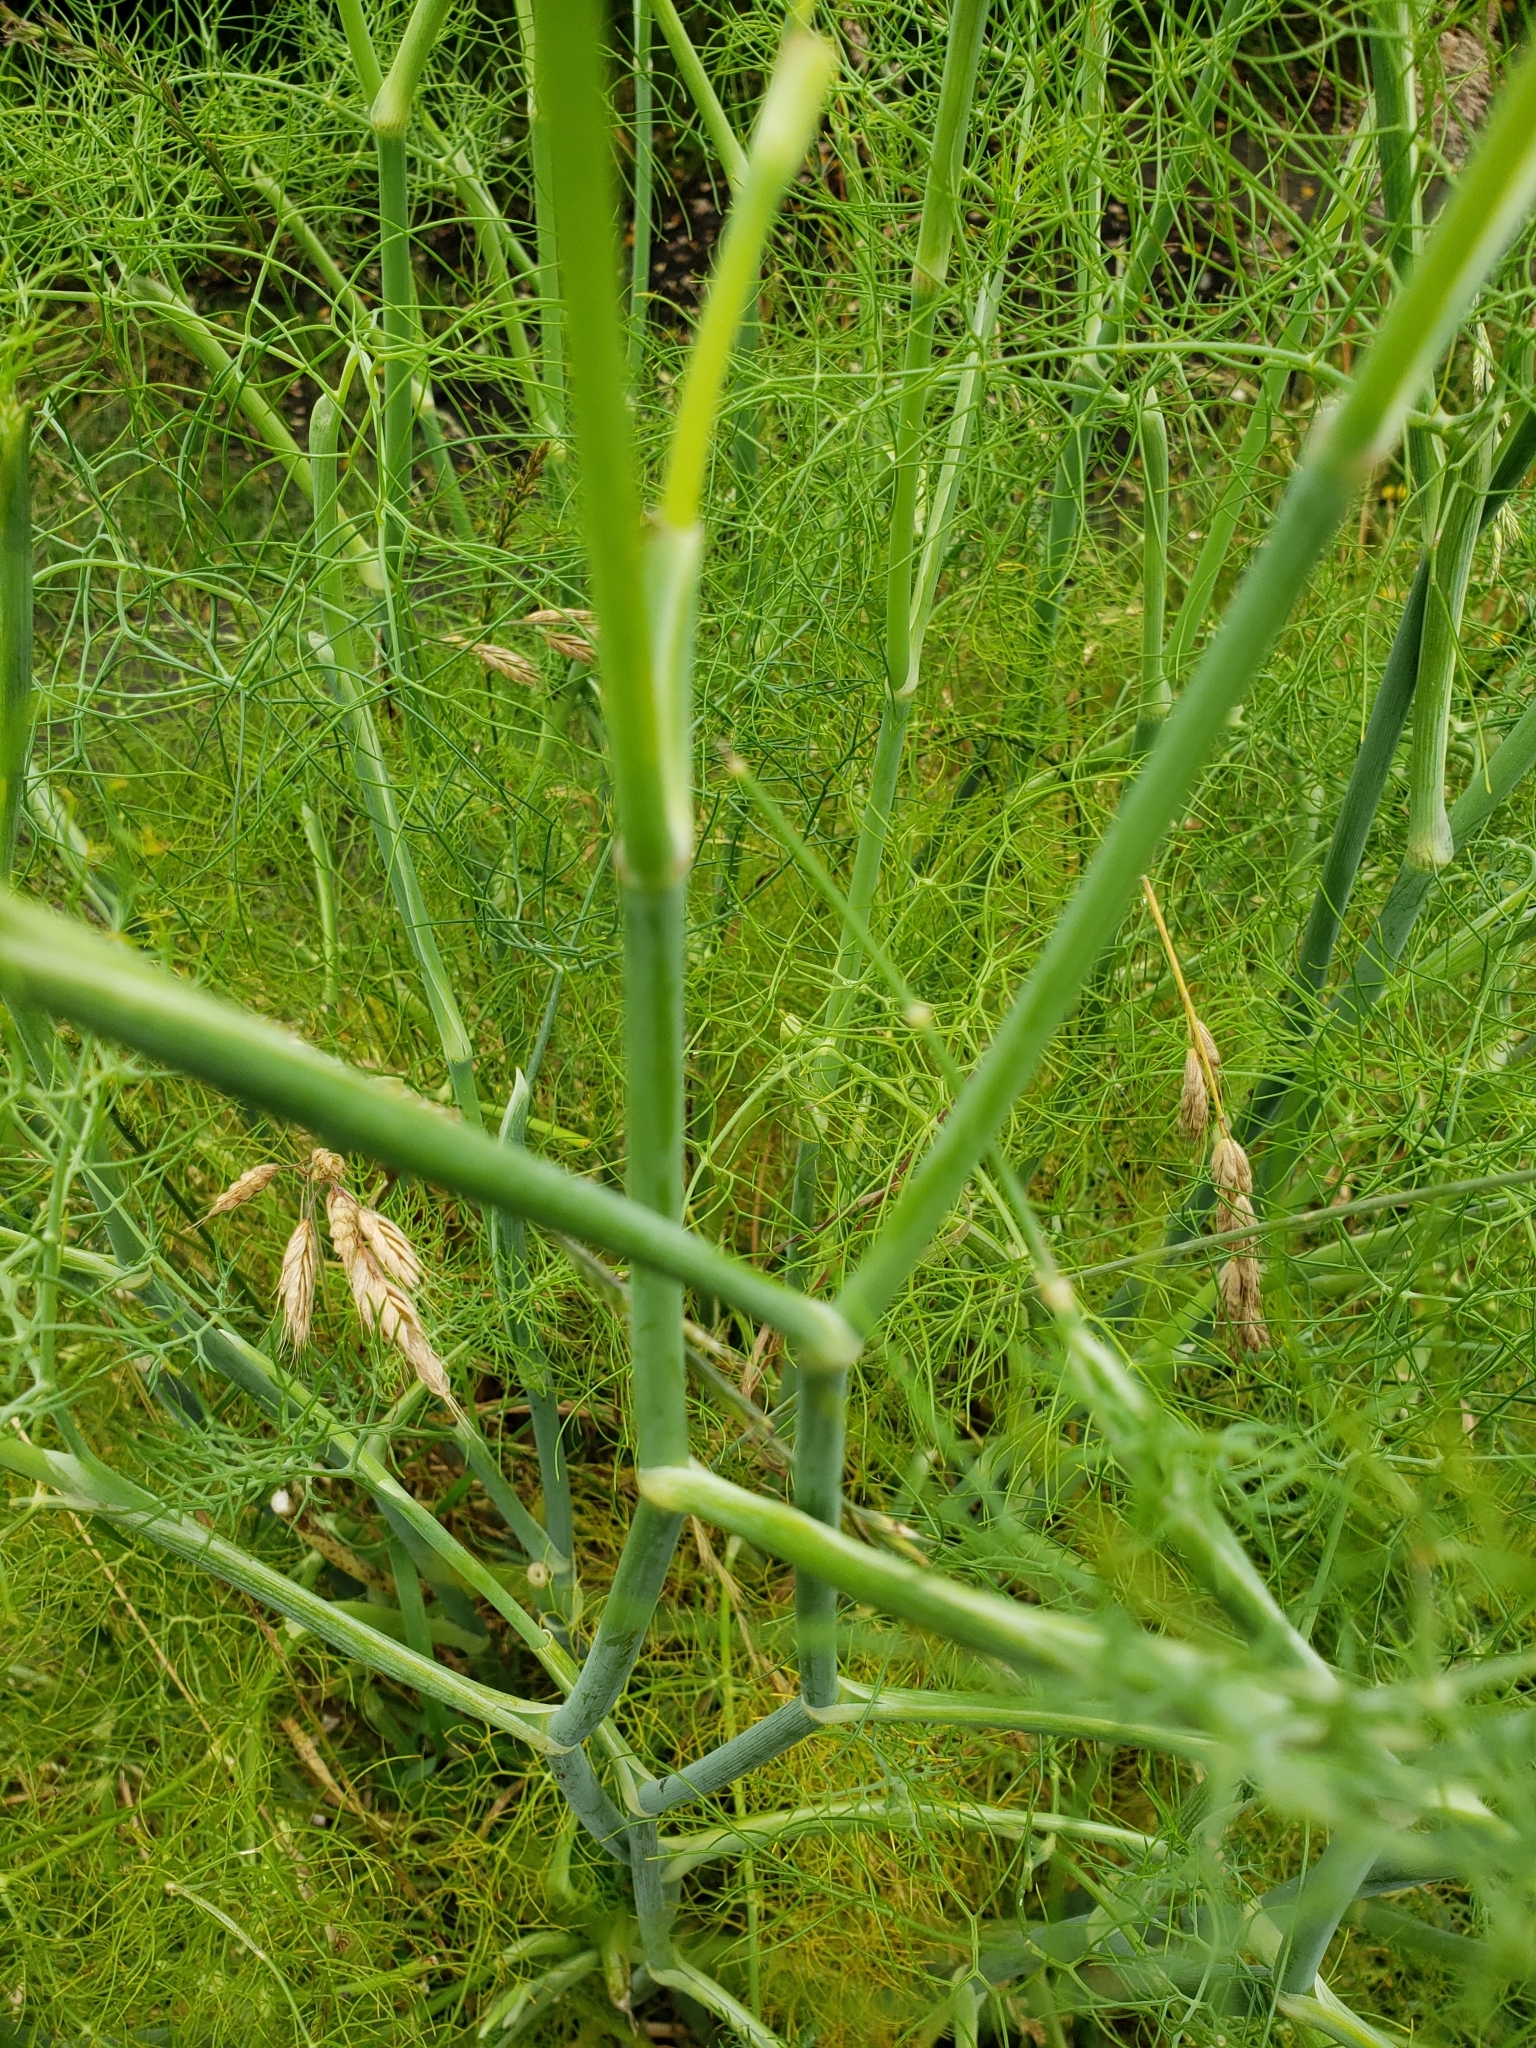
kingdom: Plantae
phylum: Tracheophyta
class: Magnoliopsida
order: Apiales
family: Apiaceae
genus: Foeniculum
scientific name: Foeniculum vulgare
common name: Fennel
